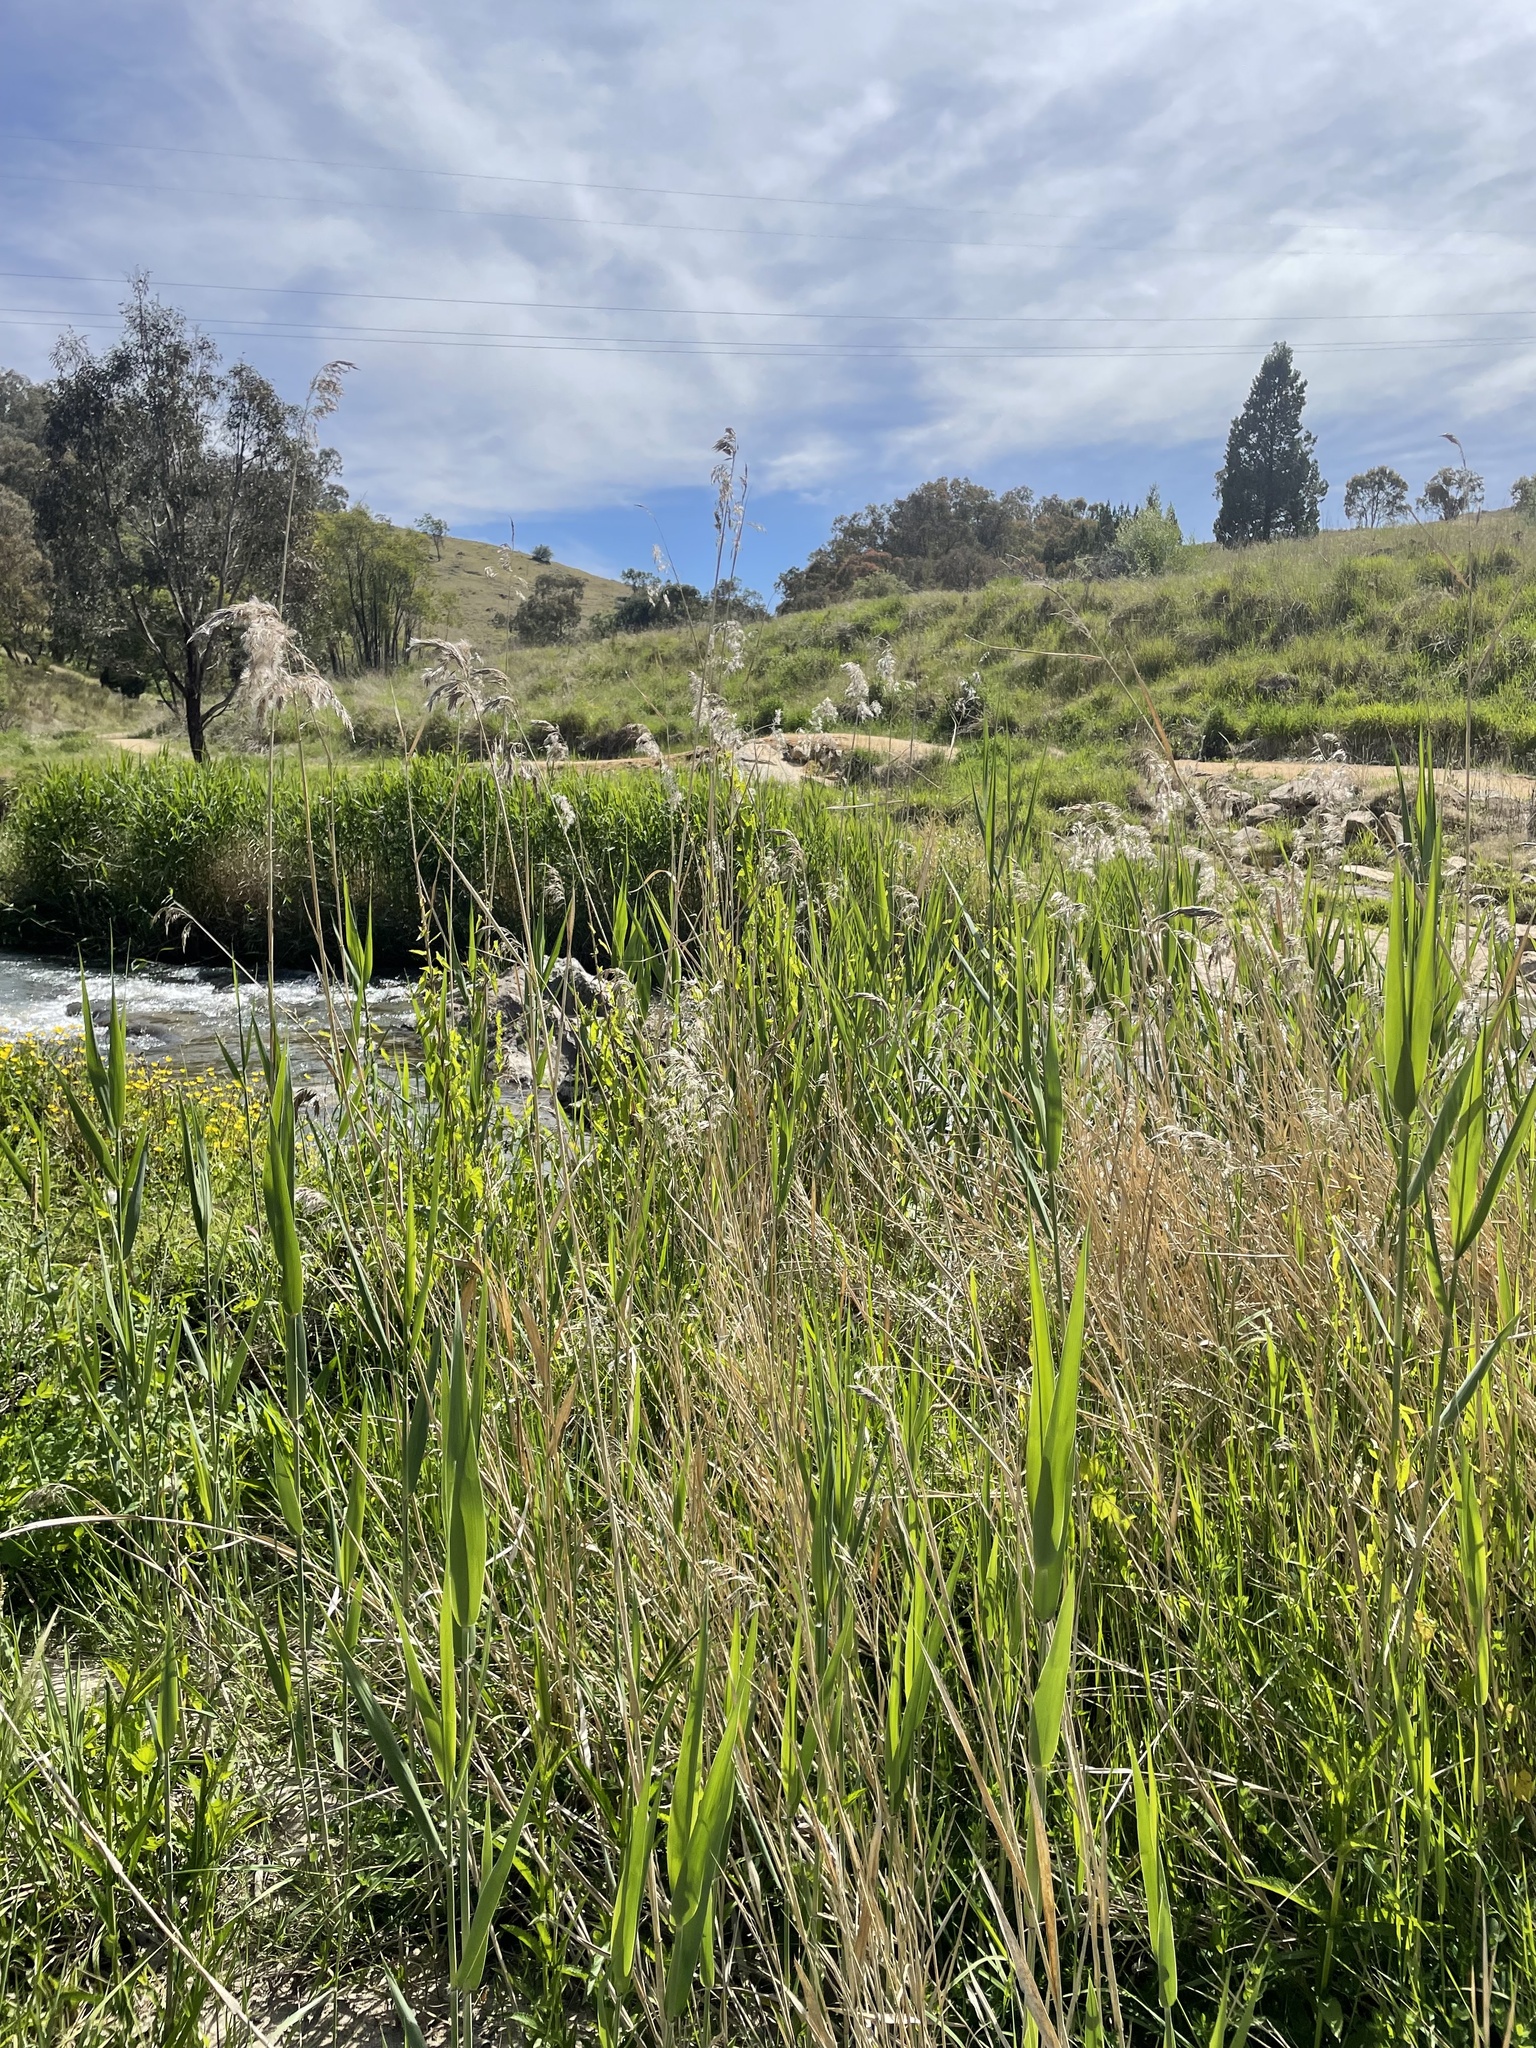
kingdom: Plantae
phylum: Tracheophyta
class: Liliopsida
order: Poales
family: Poaceae
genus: Phragmites
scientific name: Phragmites australis
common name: Common reed
